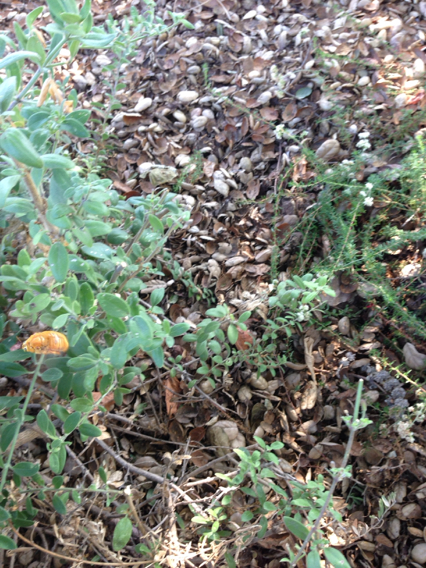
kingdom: Animalia
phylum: Arthropoda
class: Insecta
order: Hymenoptera
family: Apidae
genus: Xylocopa
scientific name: Xylocopa sonorina
